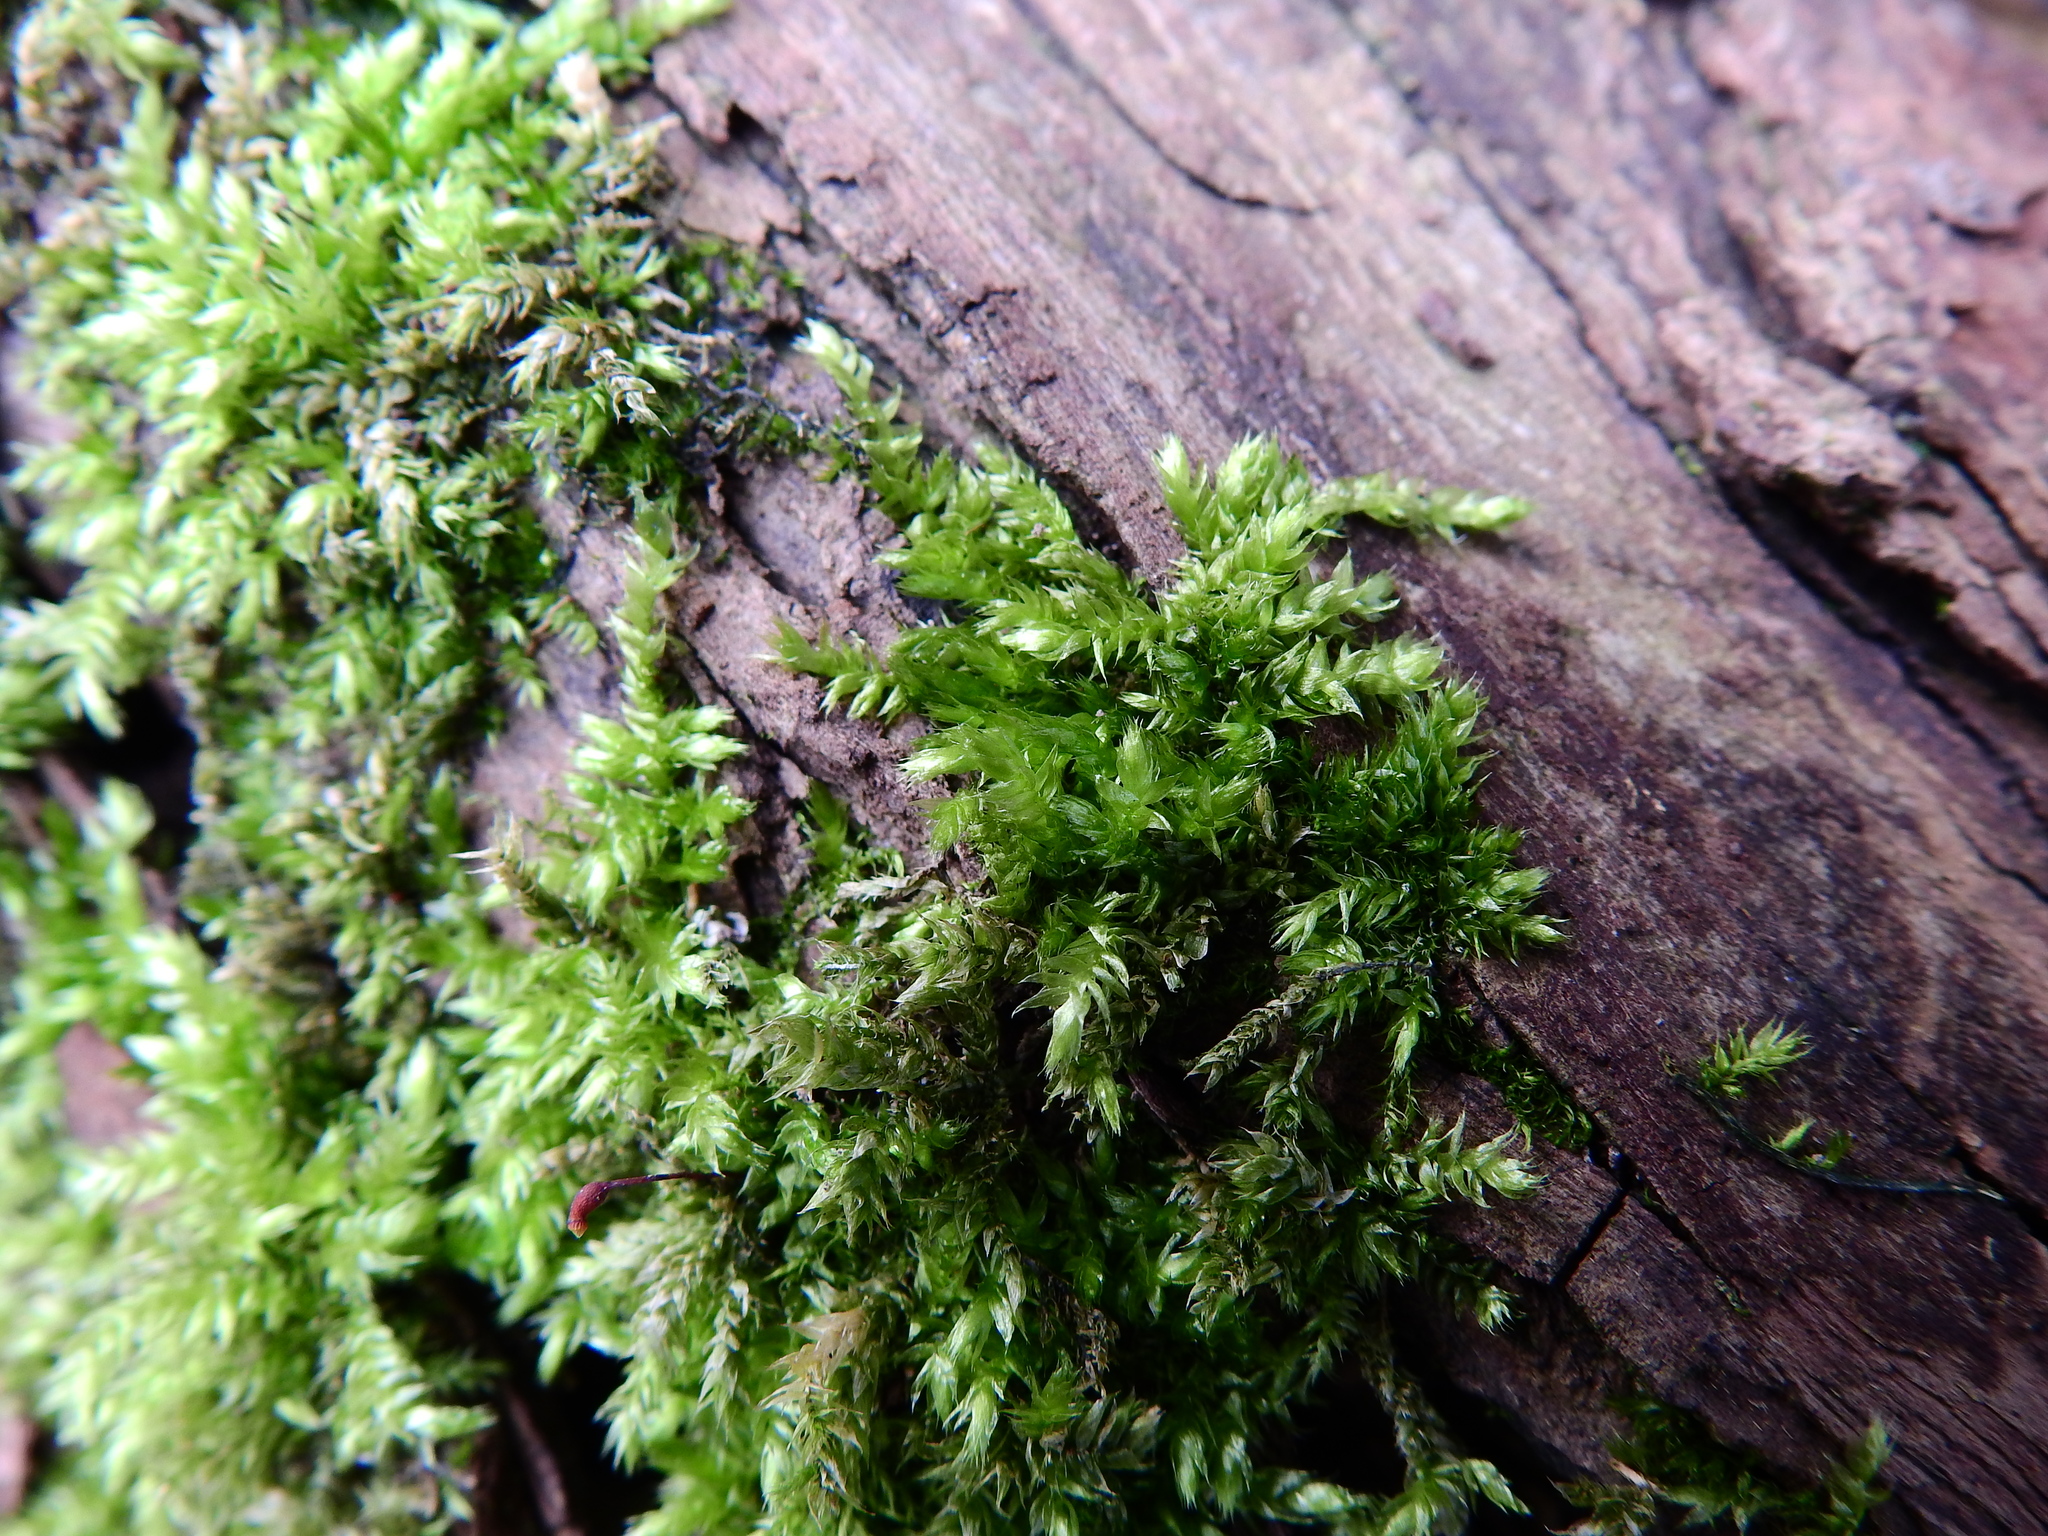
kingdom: Plantae
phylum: Bryophyta
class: Bryopsida
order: Hypnales
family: Brachytheciaceae
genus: Brachythecium
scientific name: Brachythecium rutabulum
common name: Rough-stalked feather-moss
